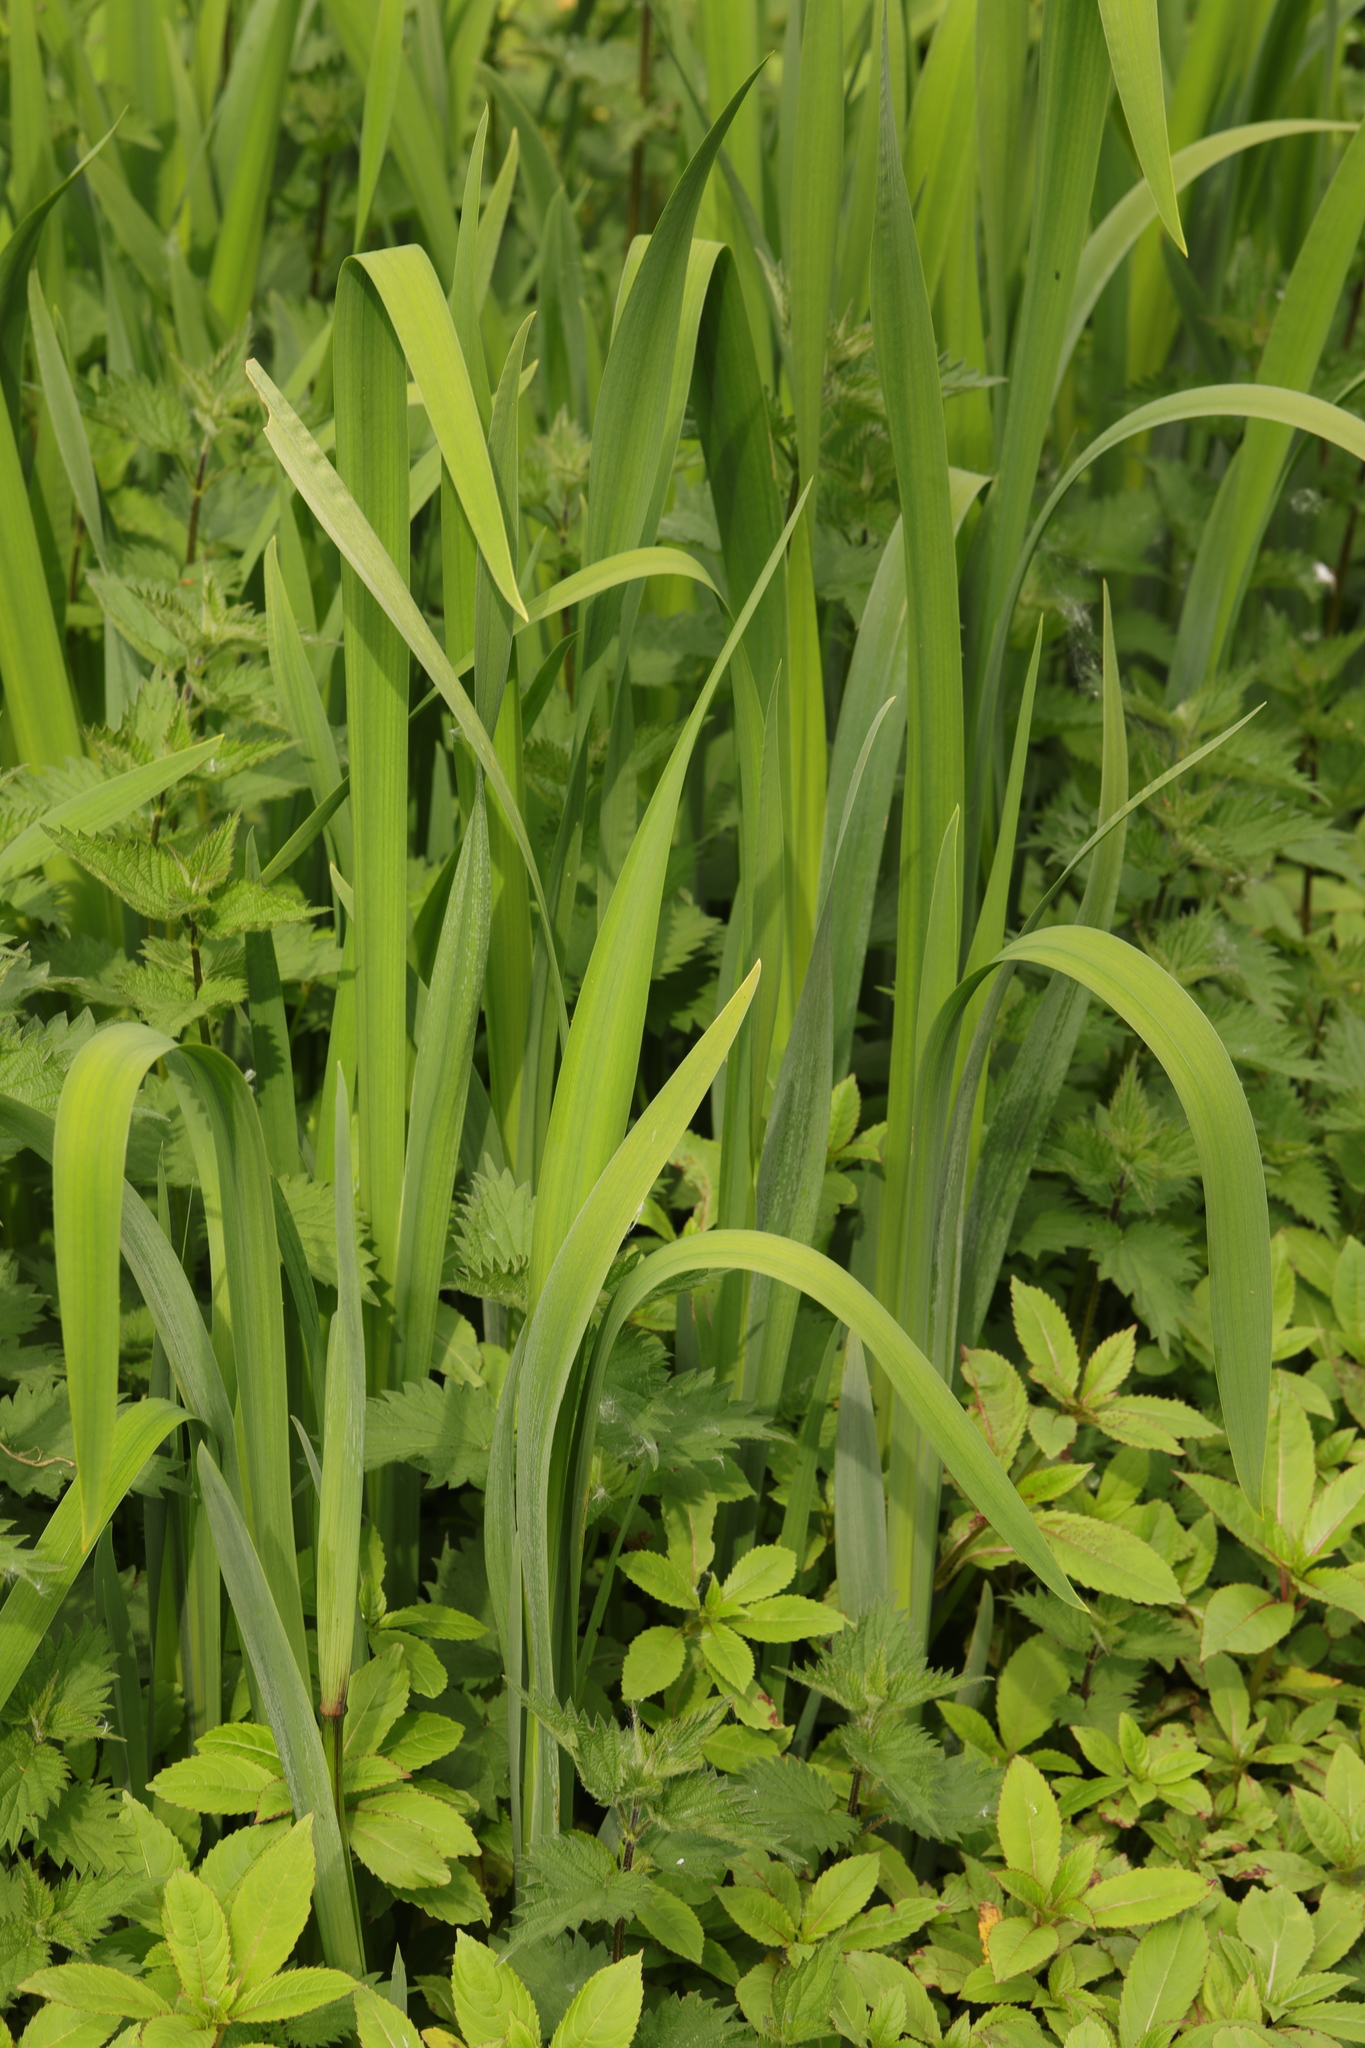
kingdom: Plantae
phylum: Tracheophyta
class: Liliopsida
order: Asparagales
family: Iridaceae
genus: Iris
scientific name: Iris pseudacorus
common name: Yellow flag
